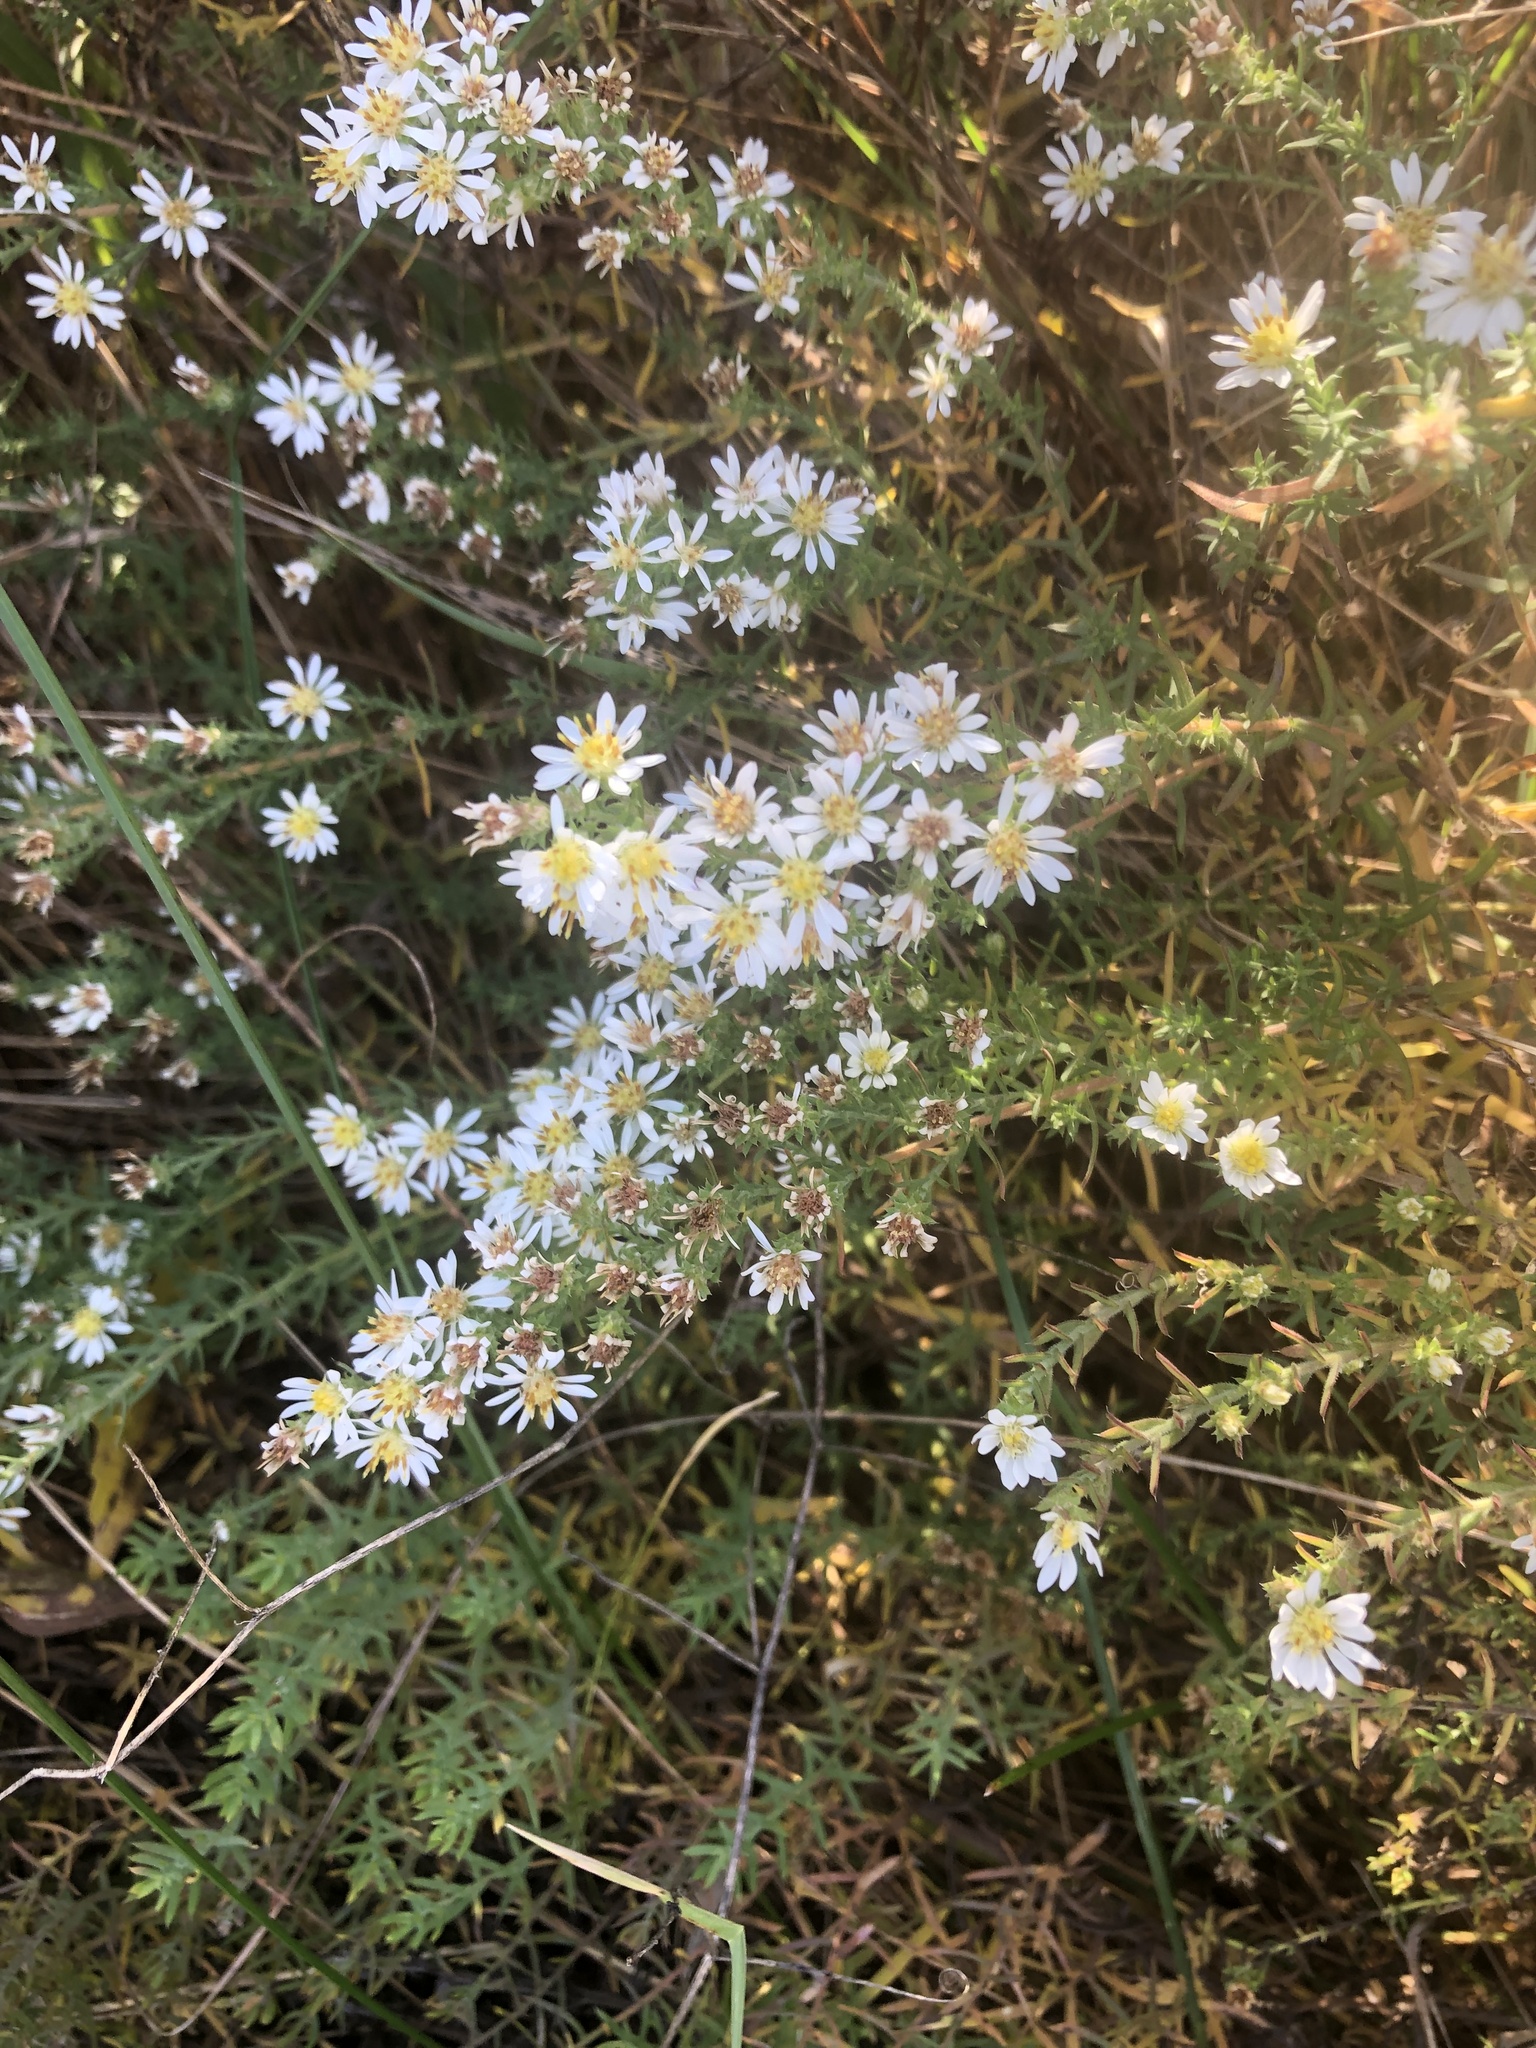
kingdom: Plantae
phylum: Tracheophyta
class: Magnoliopsida
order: Asterales
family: Asteraceae
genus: Symphyotrichum
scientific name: Symphyotrichum ericoides
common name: Heath aster
